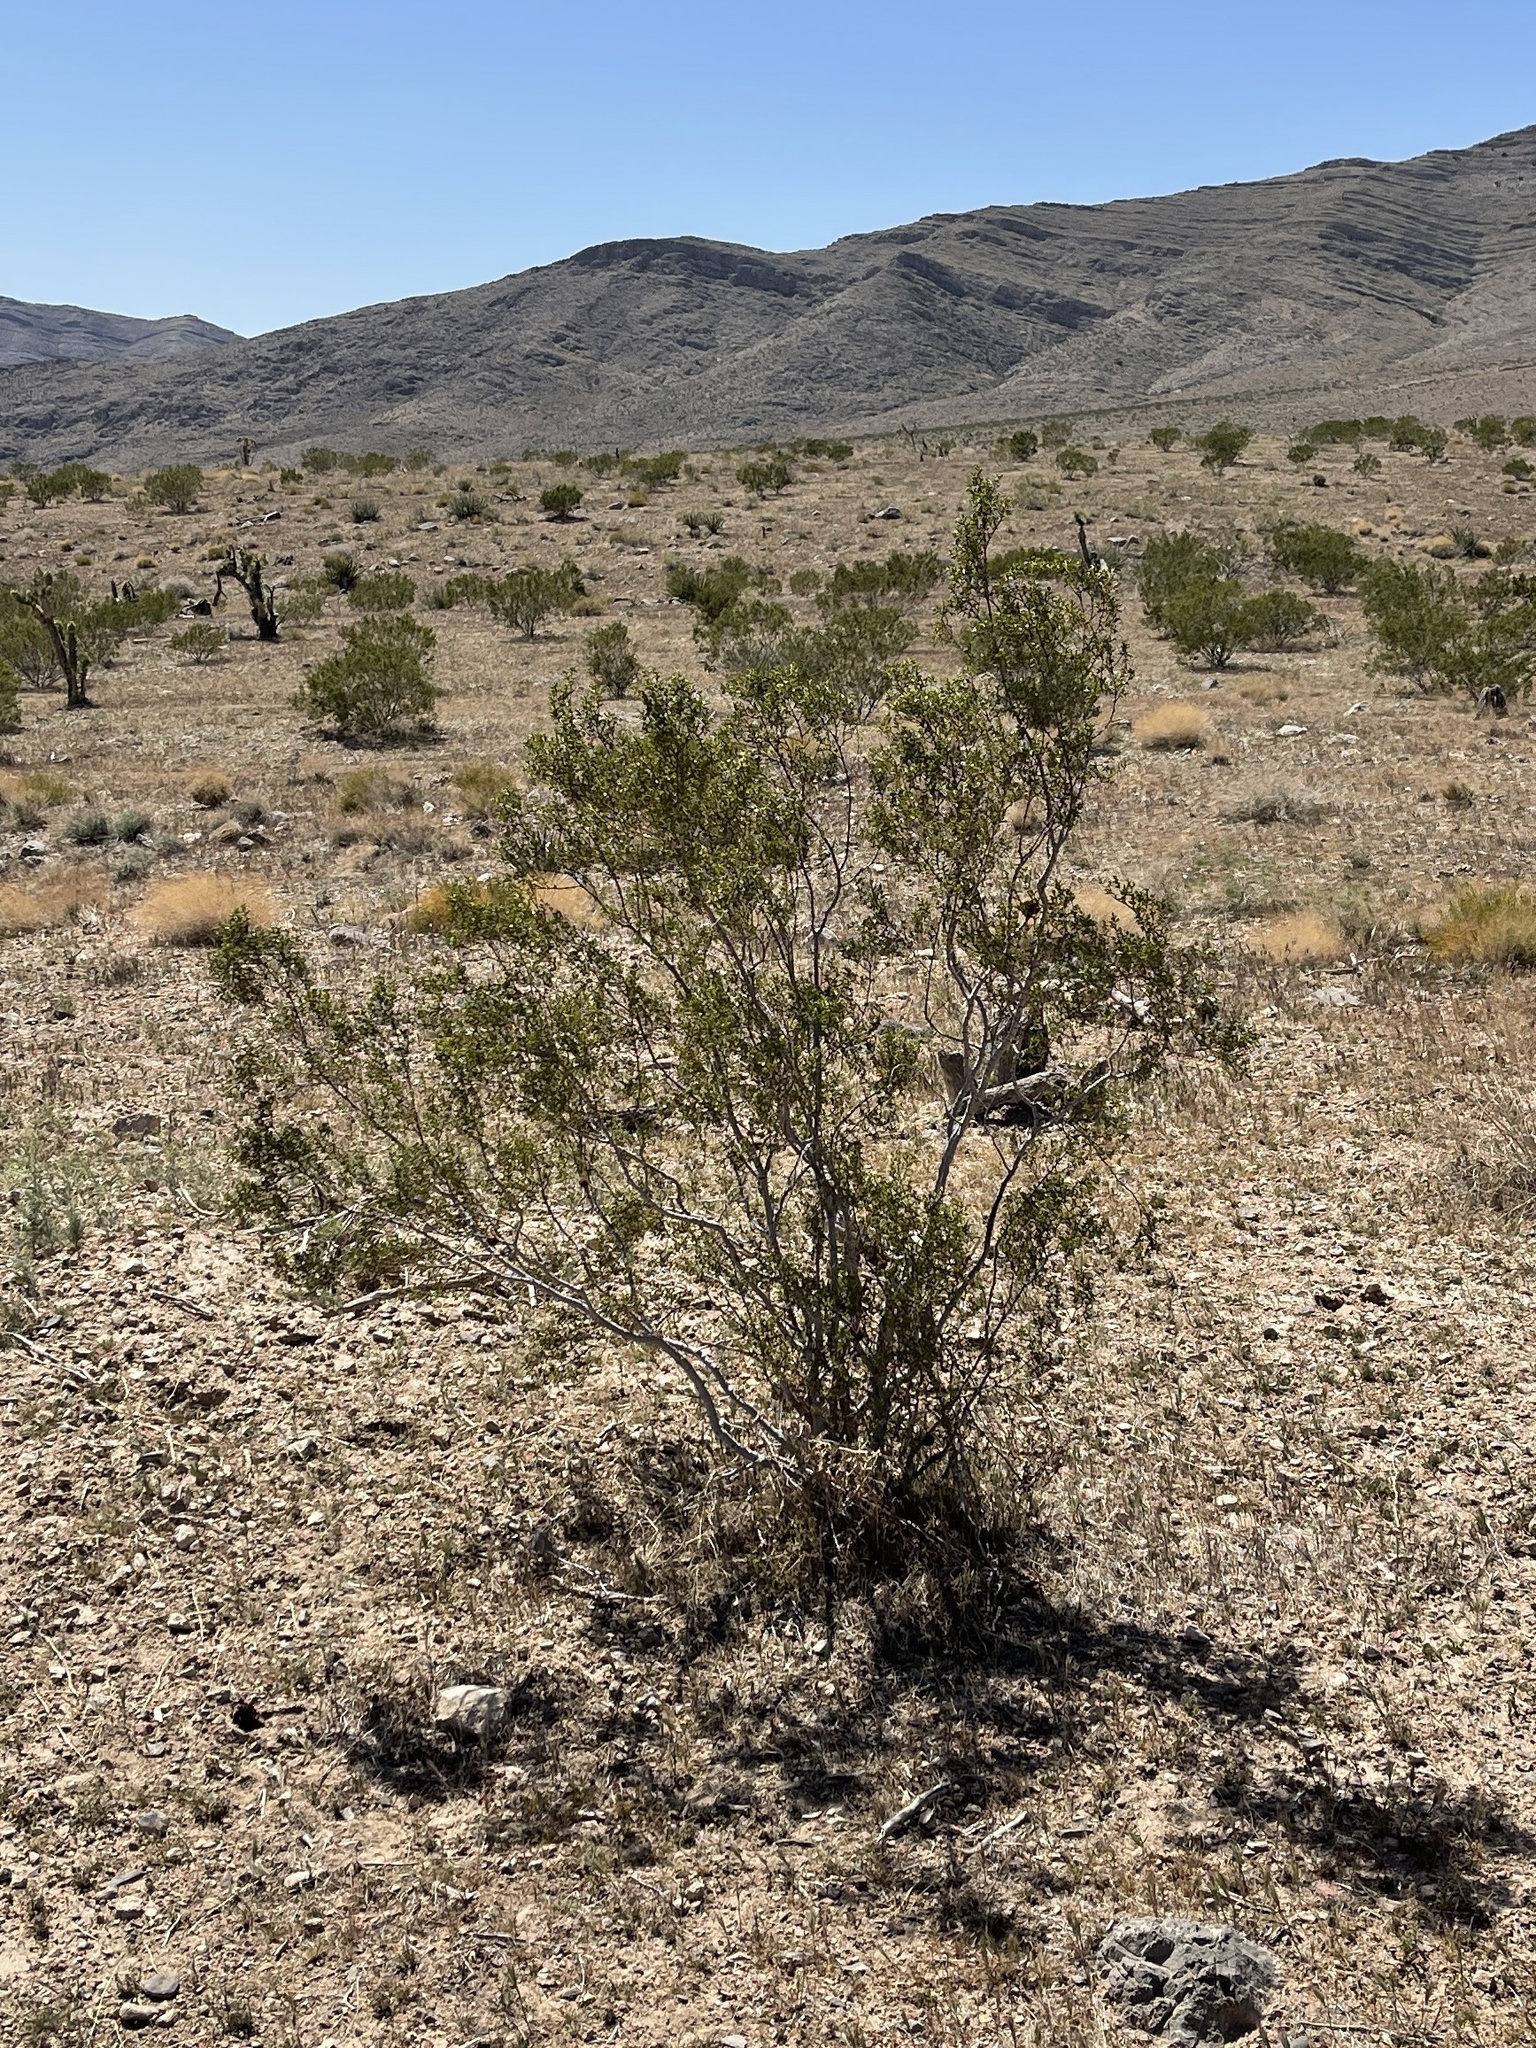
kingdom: Plantae
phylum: Tracheophyta
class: Magnoliopsida
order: Zygophyllales
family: Zygophyllaceae
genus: Larrea
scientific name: Larrea tridentata
